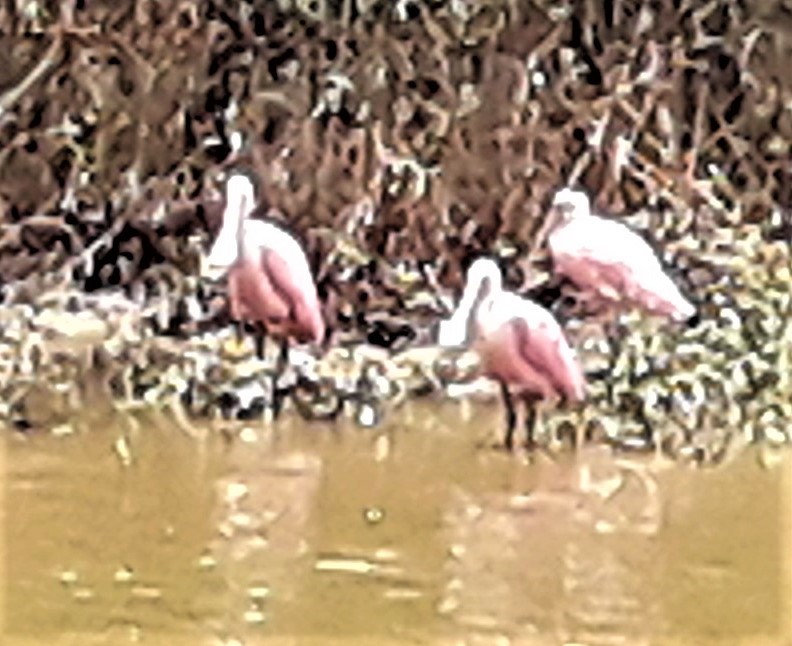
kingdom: Animalia
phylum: Chordata
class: Aves
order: Pelecaniformes
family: Threskiornithidae
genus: Platalea
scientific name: Platalea ajaja
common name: Roseate spoonbill
